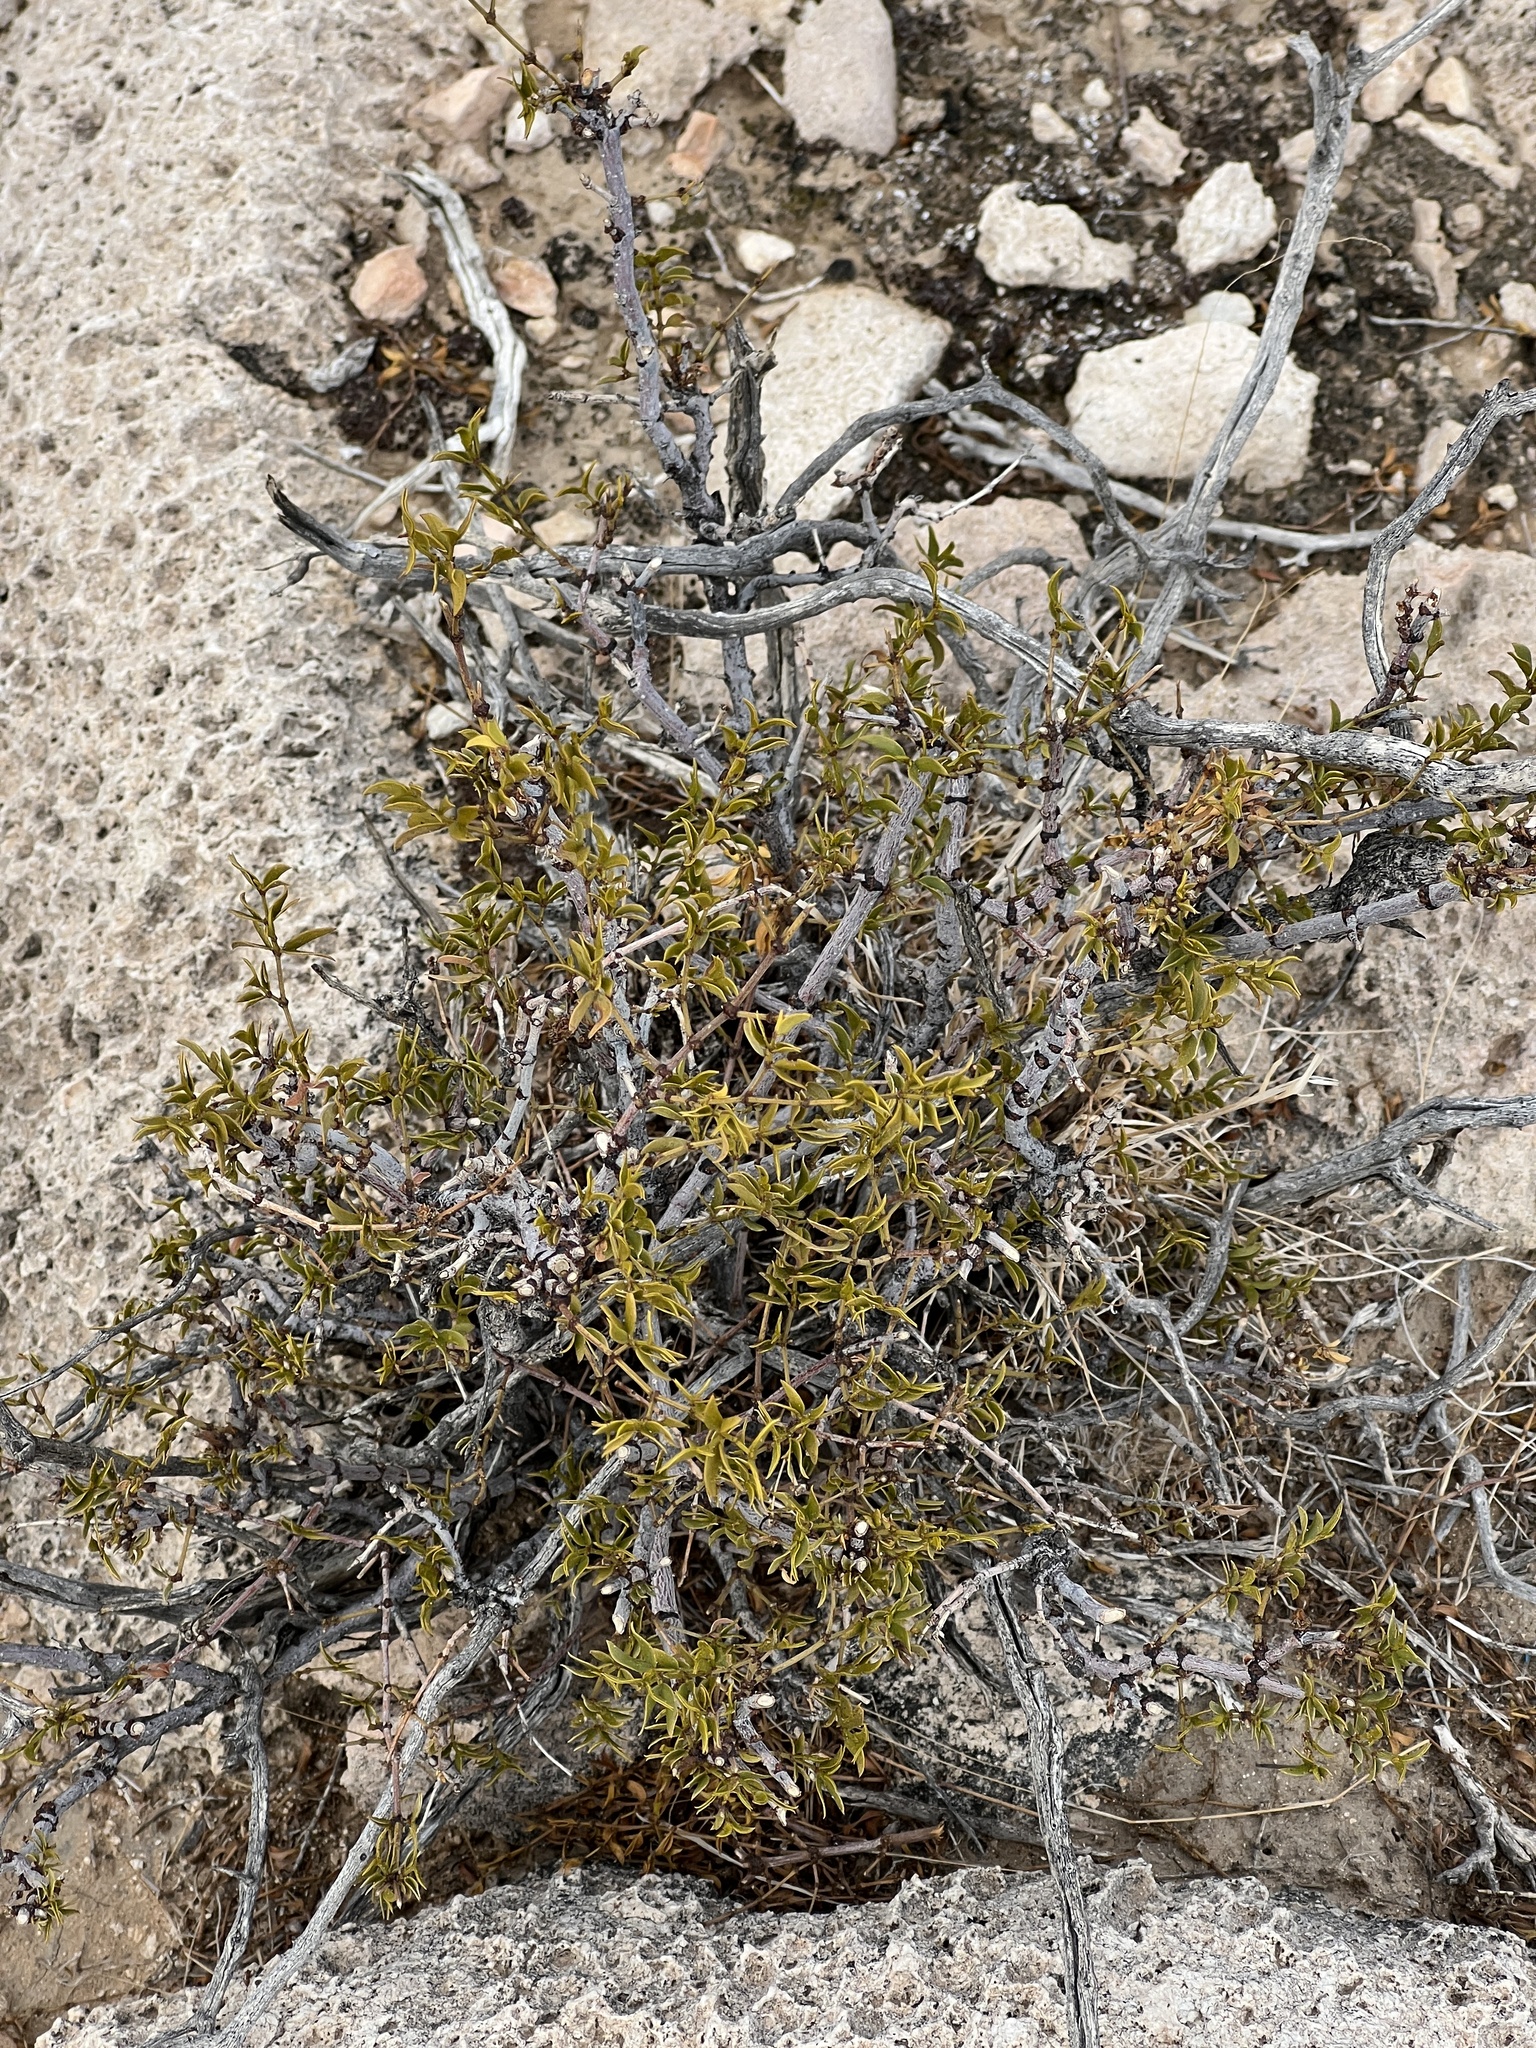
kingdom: Plantae
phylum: Tracheophyta
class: Magnoliopsida
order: Zygophyllales
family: Zygophyllaceae
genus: Larrea
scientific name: Larrea tridentata
